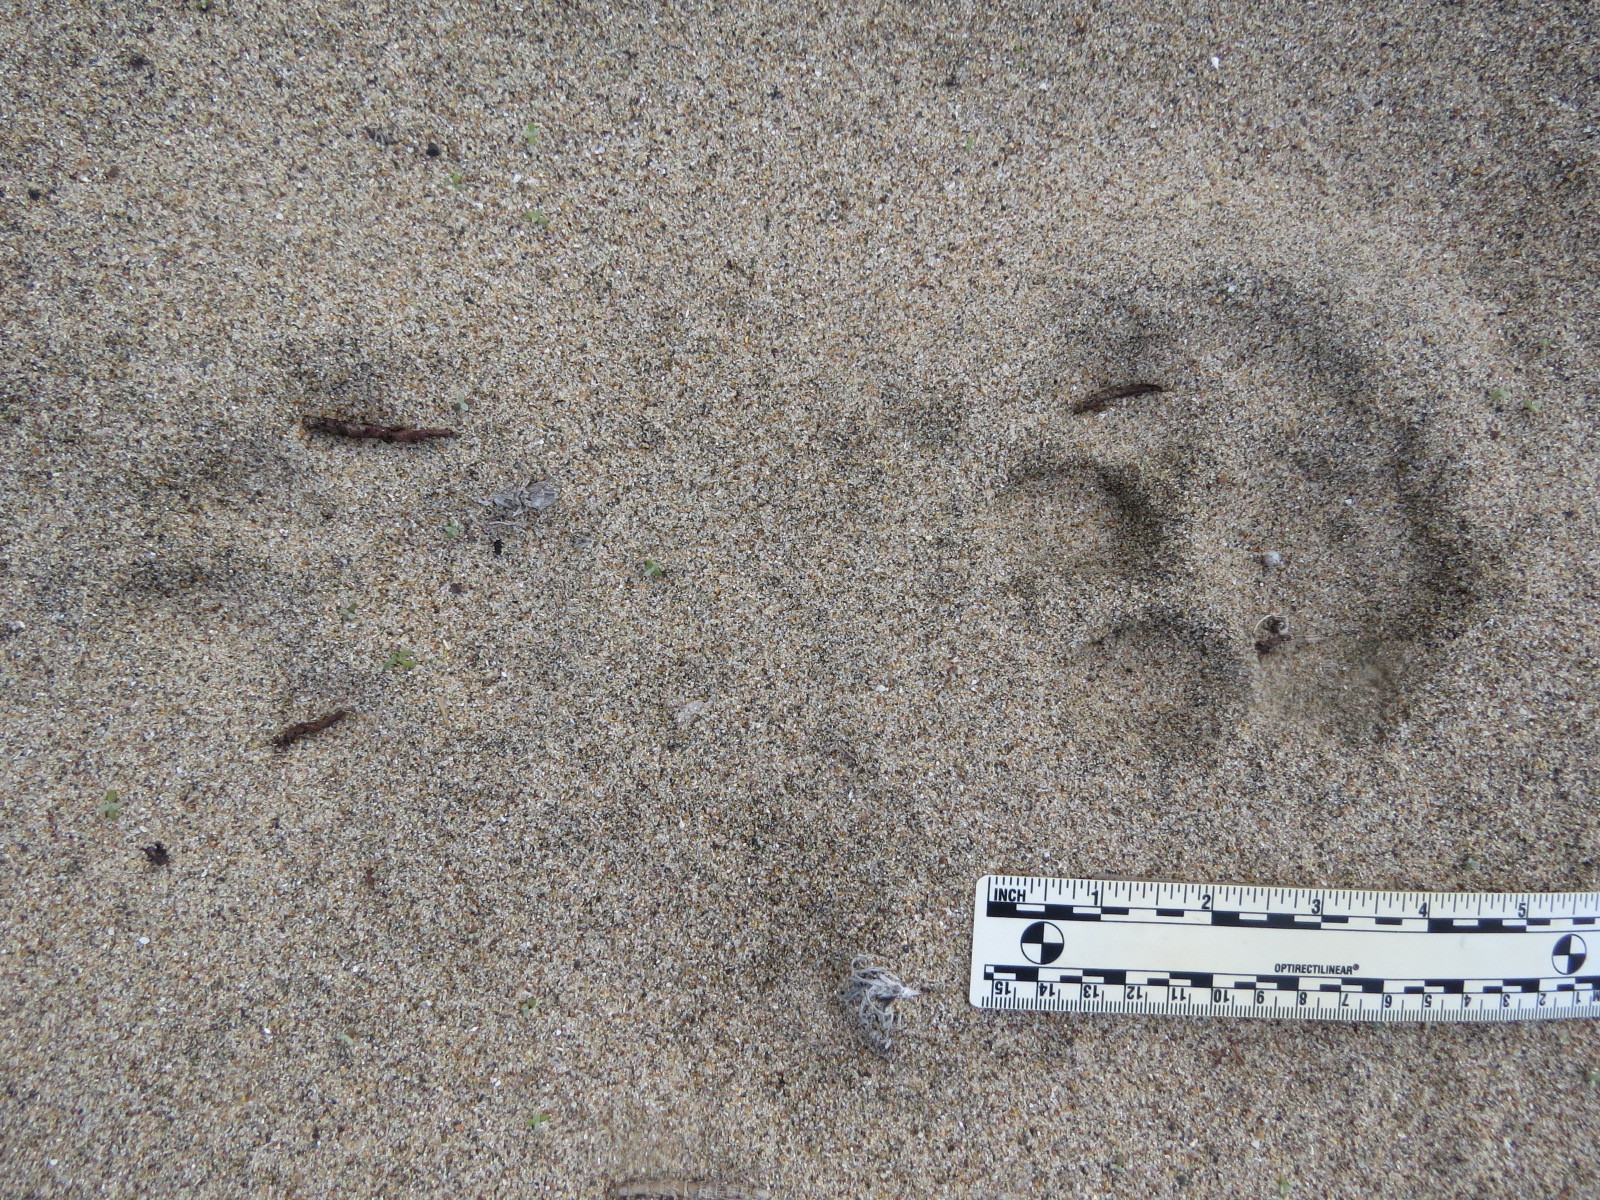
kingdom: Animalia
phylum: Chordata
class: Mammalia
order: Carnivora
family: Felidae
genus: Puma
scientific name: Puma concolor
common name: Puma
